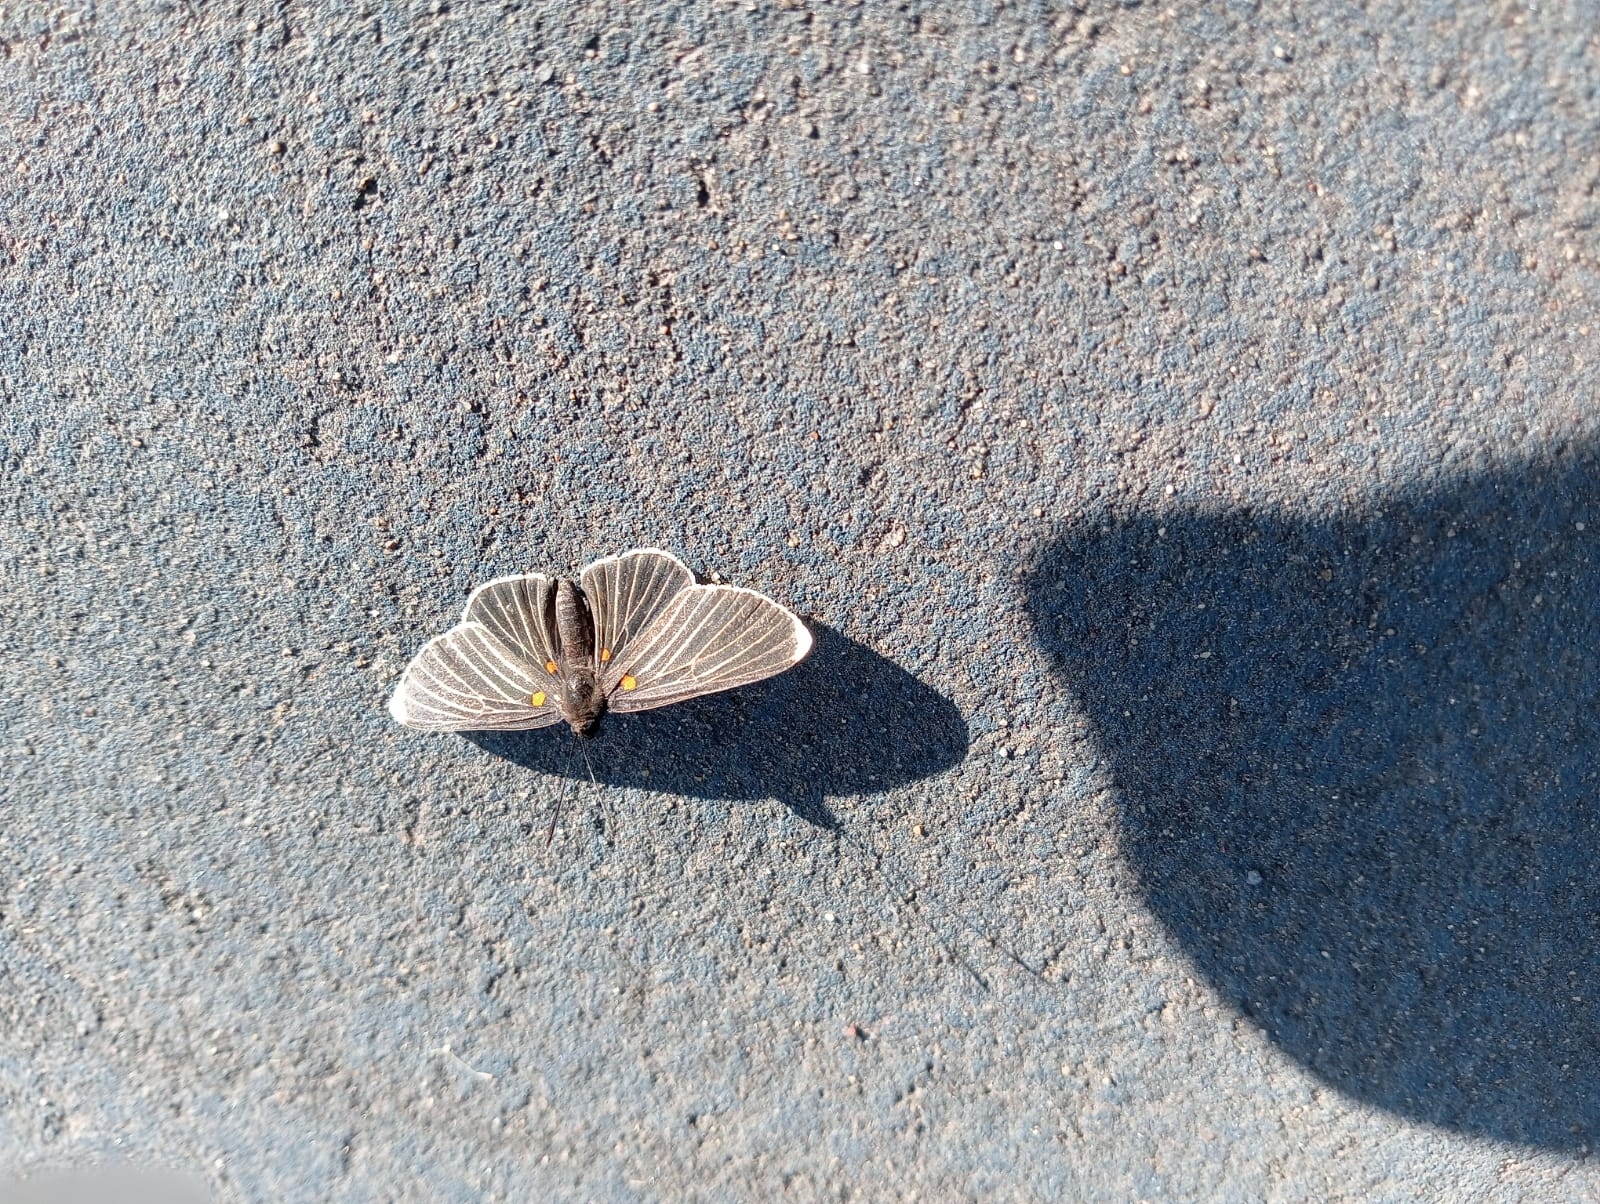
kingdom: Animalia
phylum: Arthropoda
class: Insecta
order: Lepidoptera
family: Lycaenidae
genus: Melanis
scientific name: Melanis
